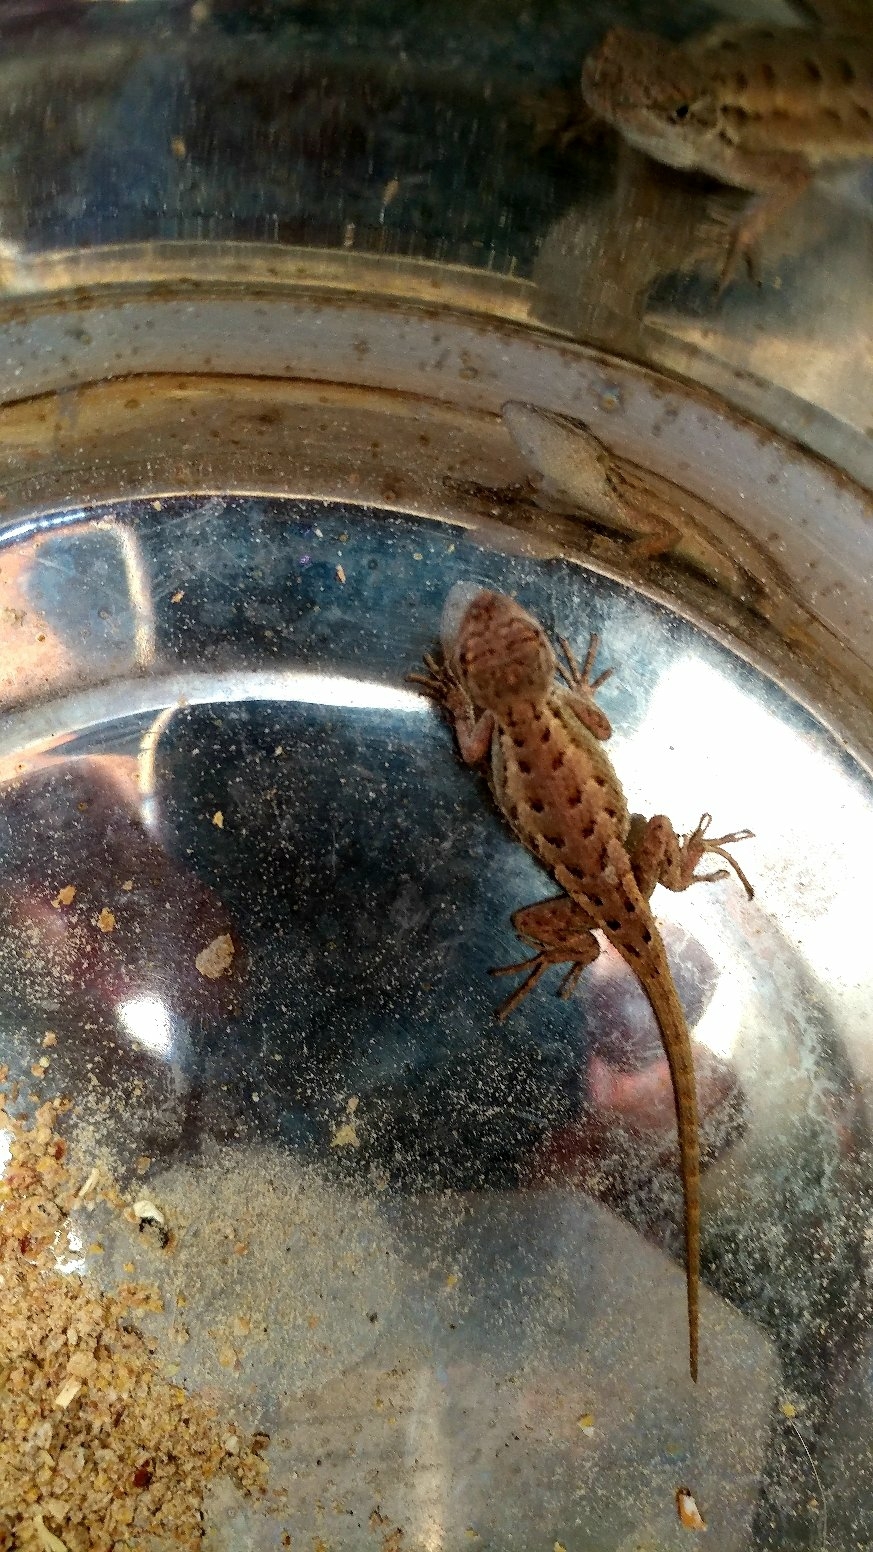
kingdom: Animalia
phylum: Chordata
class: Squamata
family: Phrynosomatidae
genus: Sceloporus
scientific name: Sceloporus occidentalis
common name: Western fence lizard
